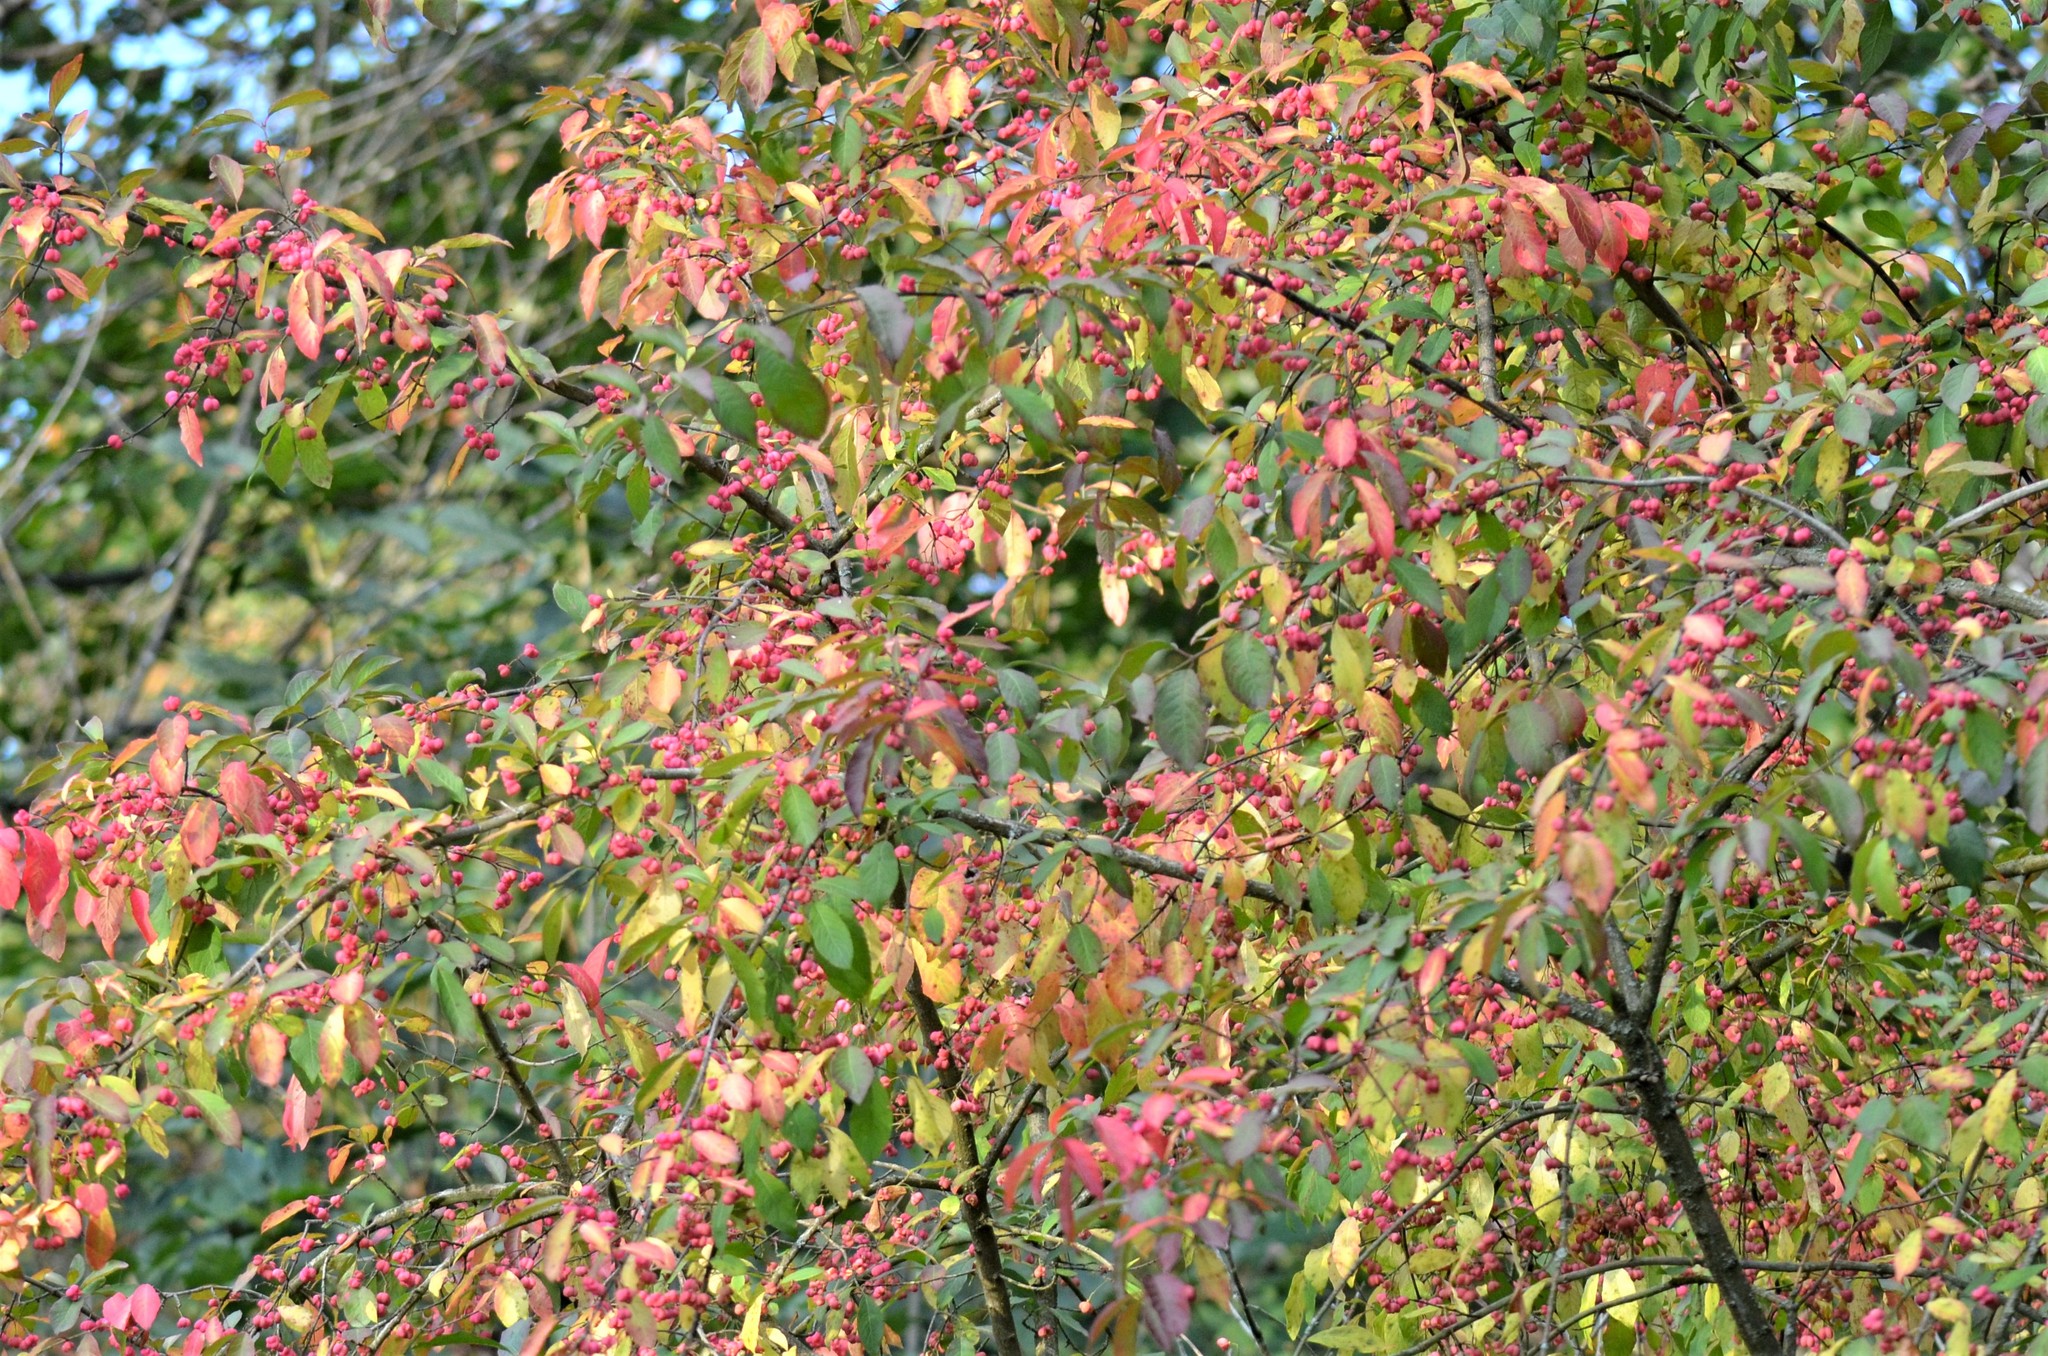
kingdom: Plantae
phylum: Tracheophyta
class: Magnoliopsida
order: Celastrales
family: Celastraceae
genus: Euonymus
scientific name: Euonymus europaeus
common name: Spindle
